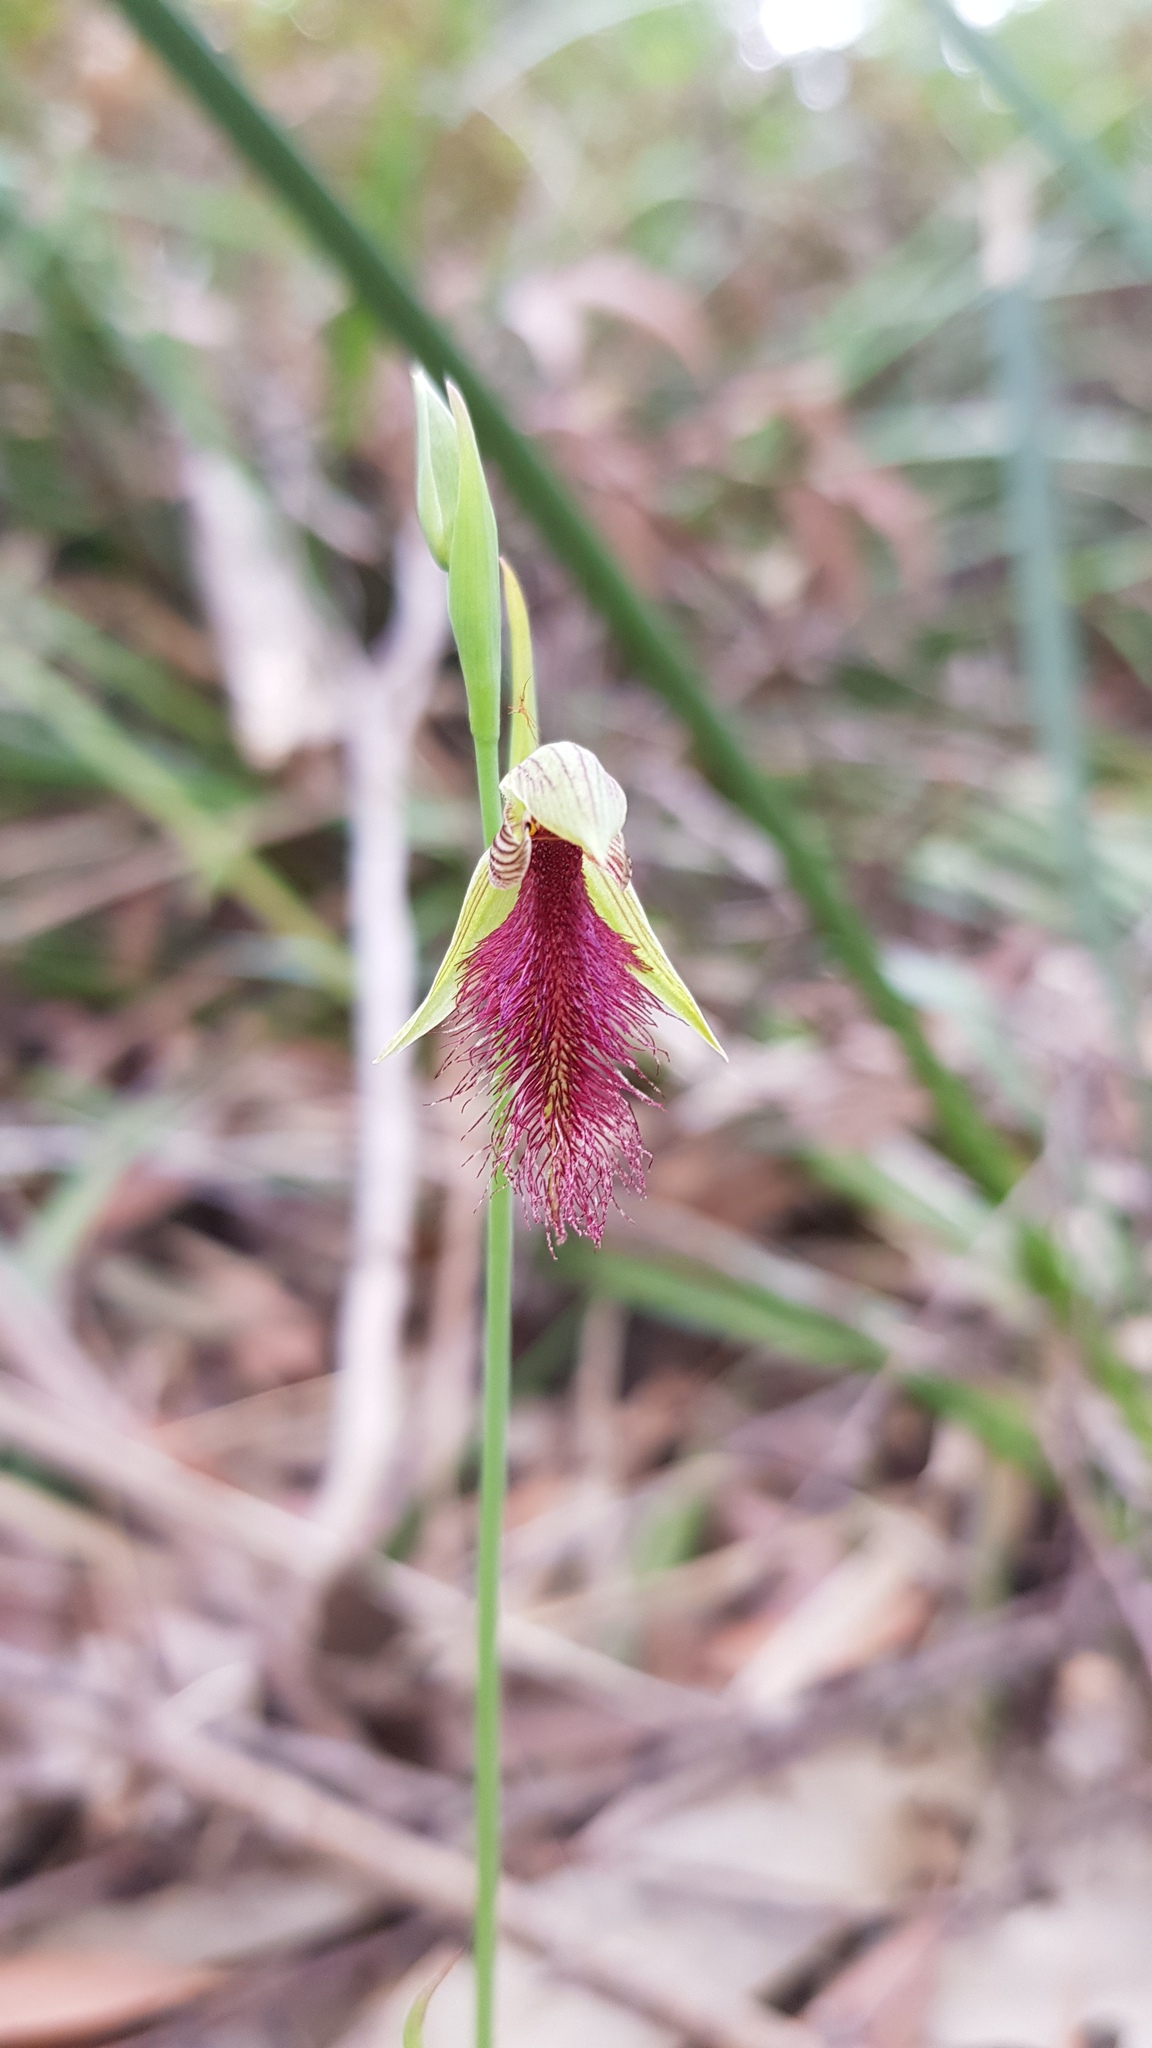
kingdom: Plantae
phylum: Tracheophyta
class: Liliopsida
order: Asparagales
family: Orchidaceae
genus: Calochilus
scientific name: Calochilus robertsonii
